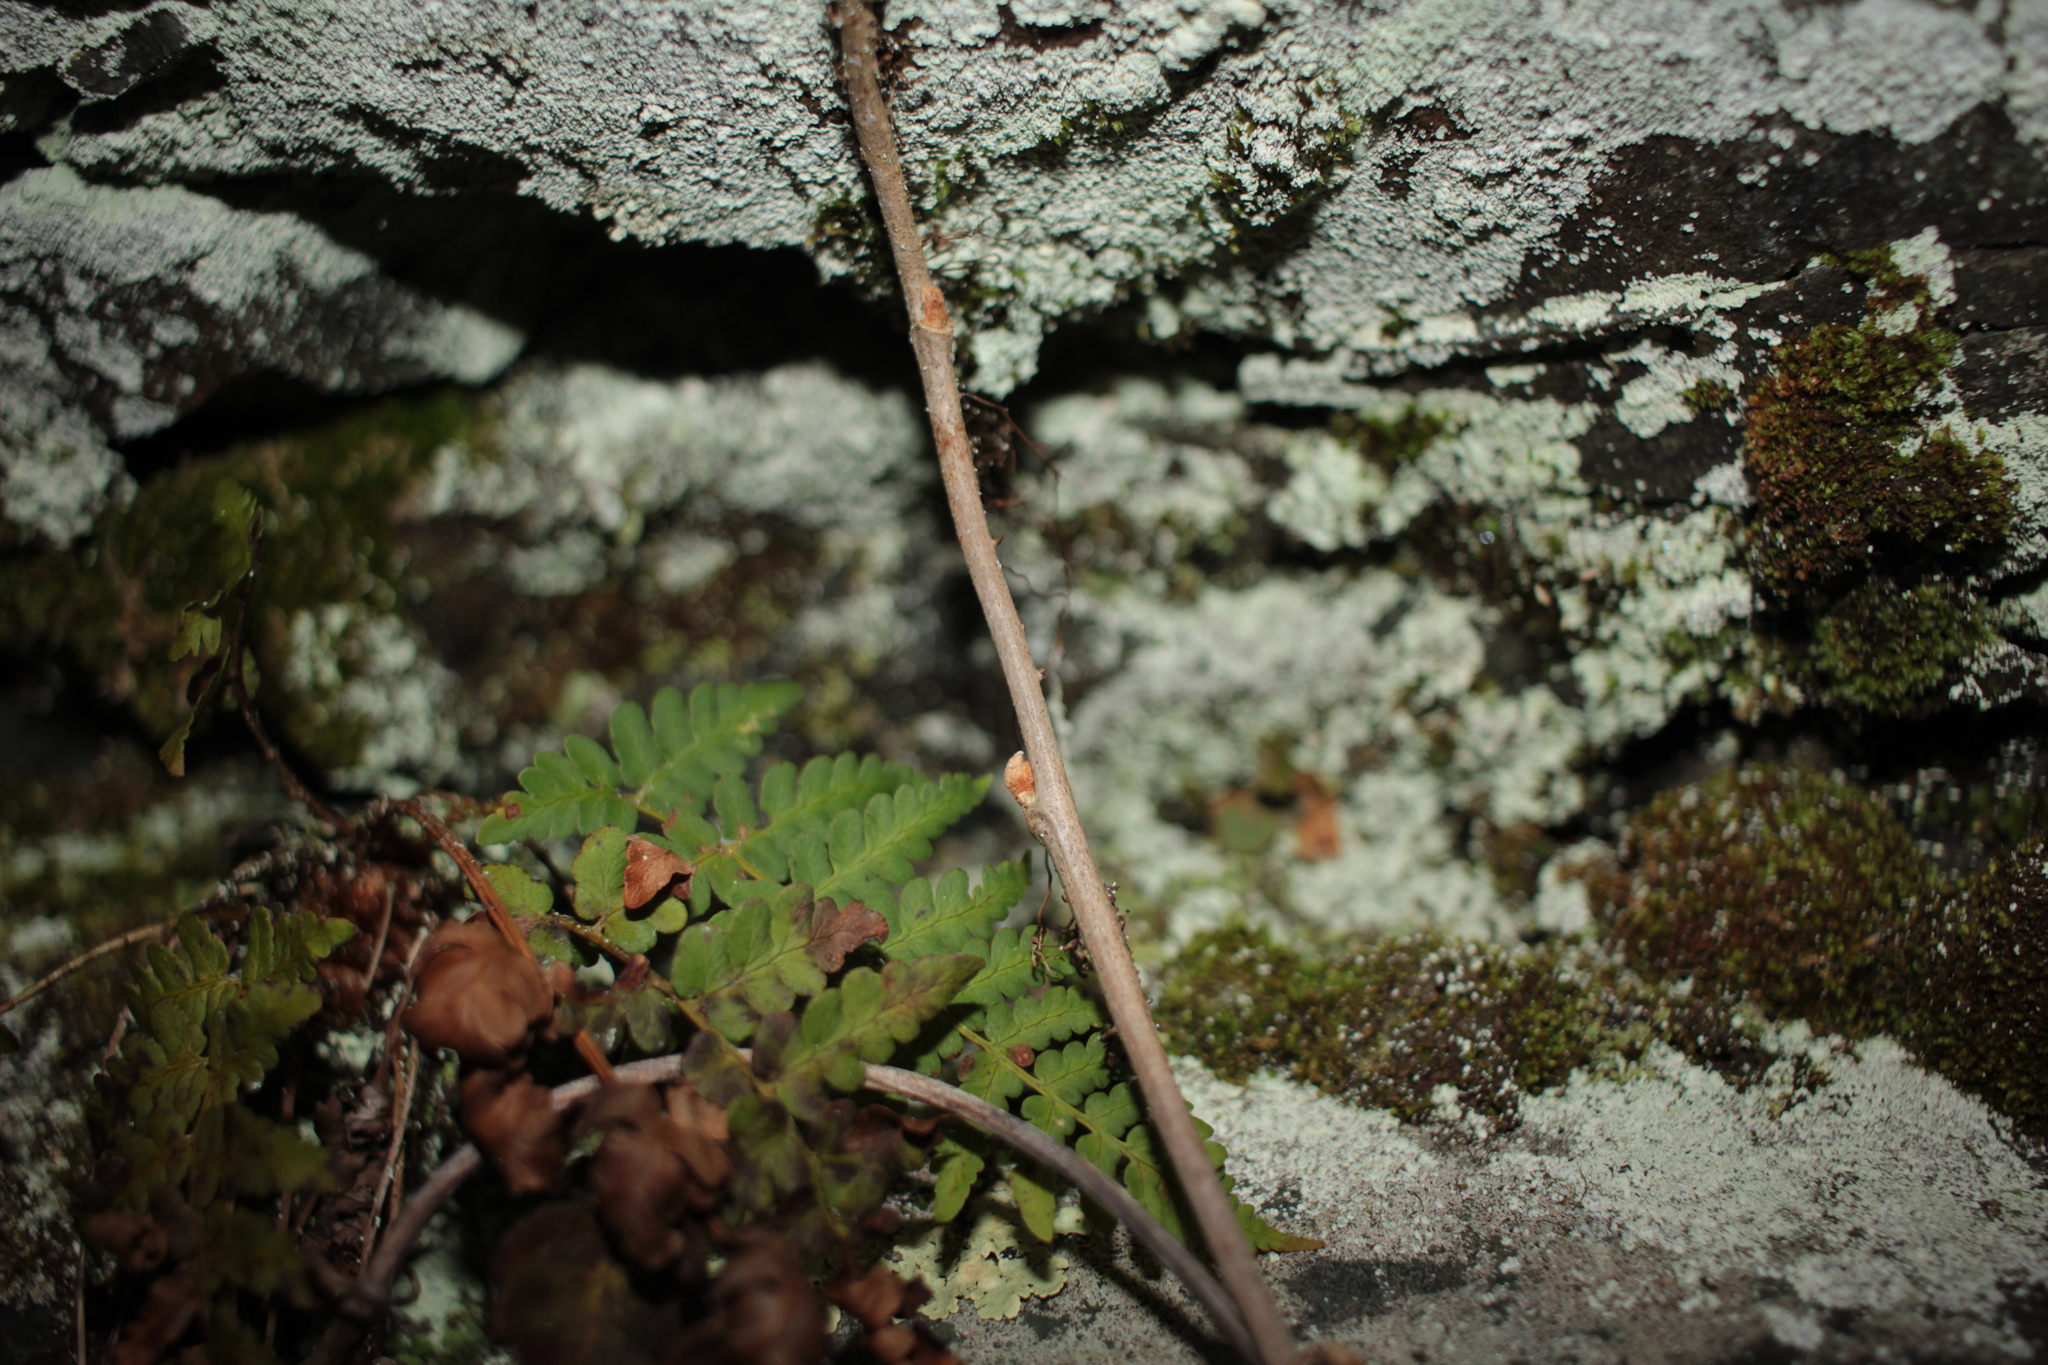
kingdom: Plantae
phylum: Tracheophyta
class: Polypodiopsida
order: Polypodiales
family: Dryopteridaceae
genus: Dryopteris
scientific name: Dryopteris marginalis
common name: Marginal wood fern
